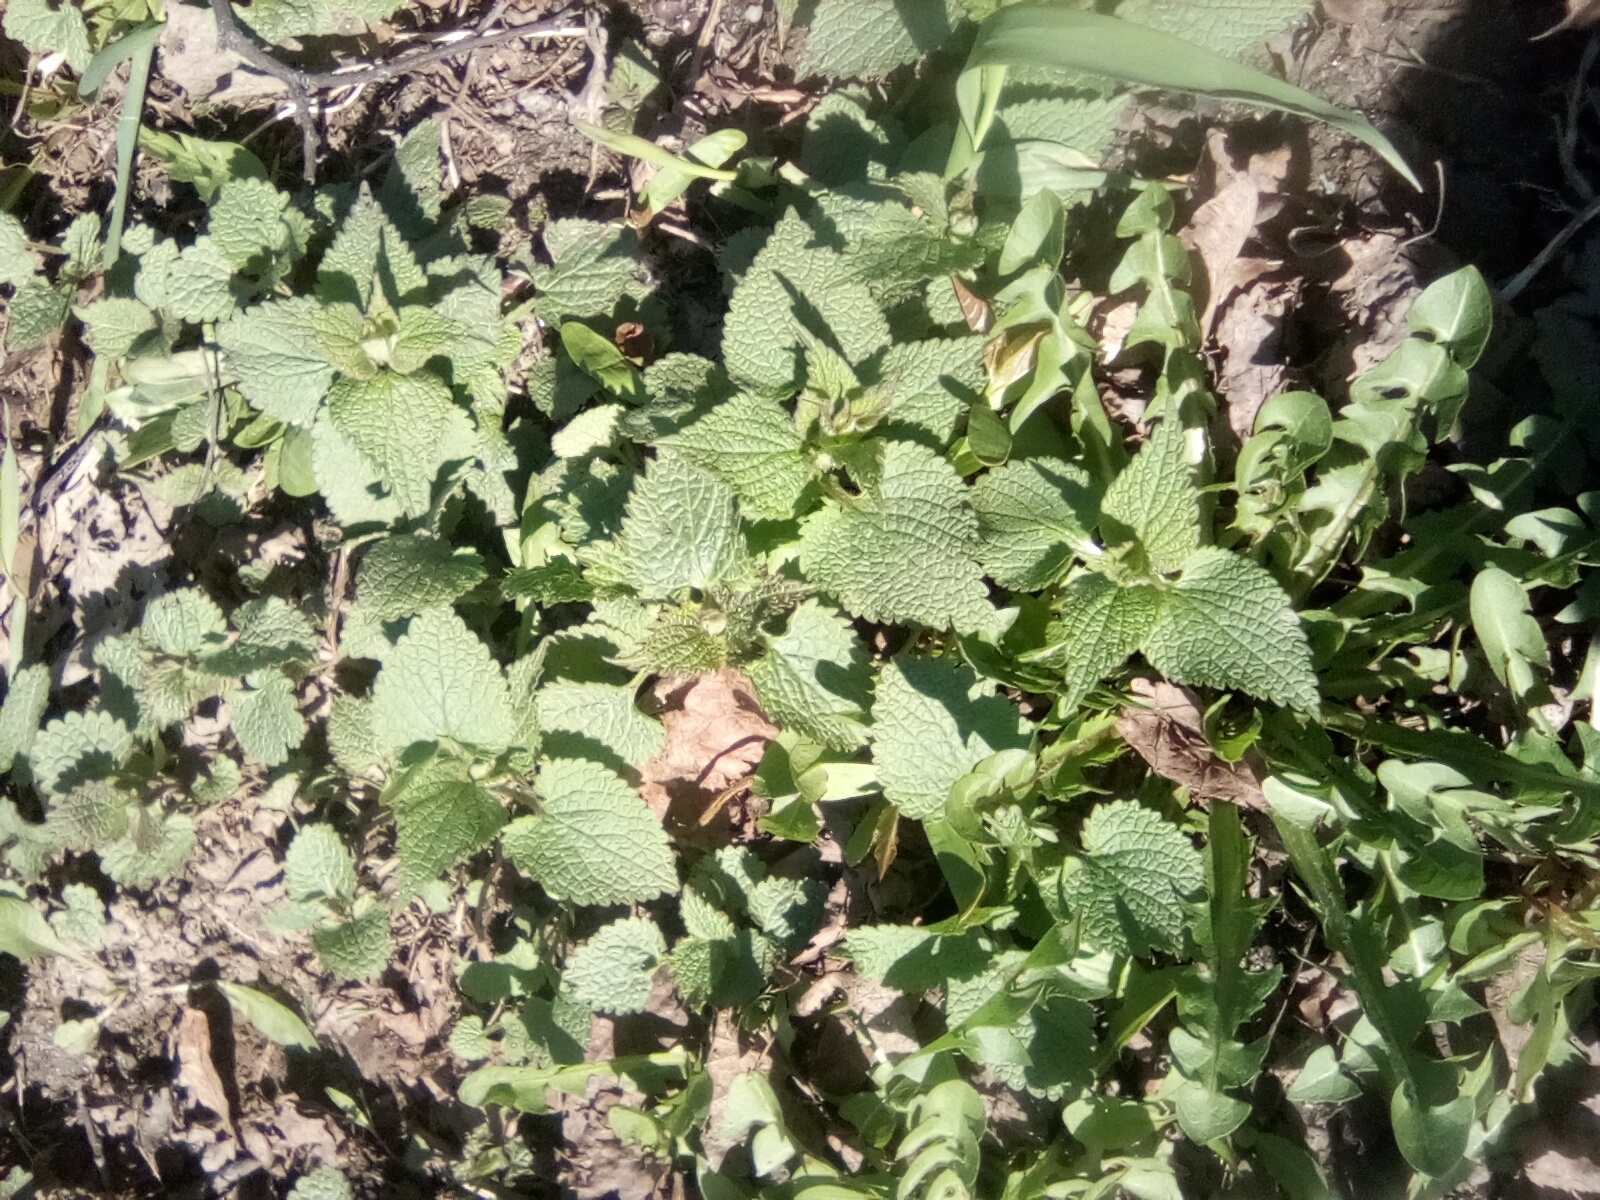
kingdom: Plantae
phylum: Tracheophyta
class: Magnoliopsida
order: Lamiales
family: Lamiaceae
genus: Lamium
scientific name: Lamium album
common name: White dead-nettle
